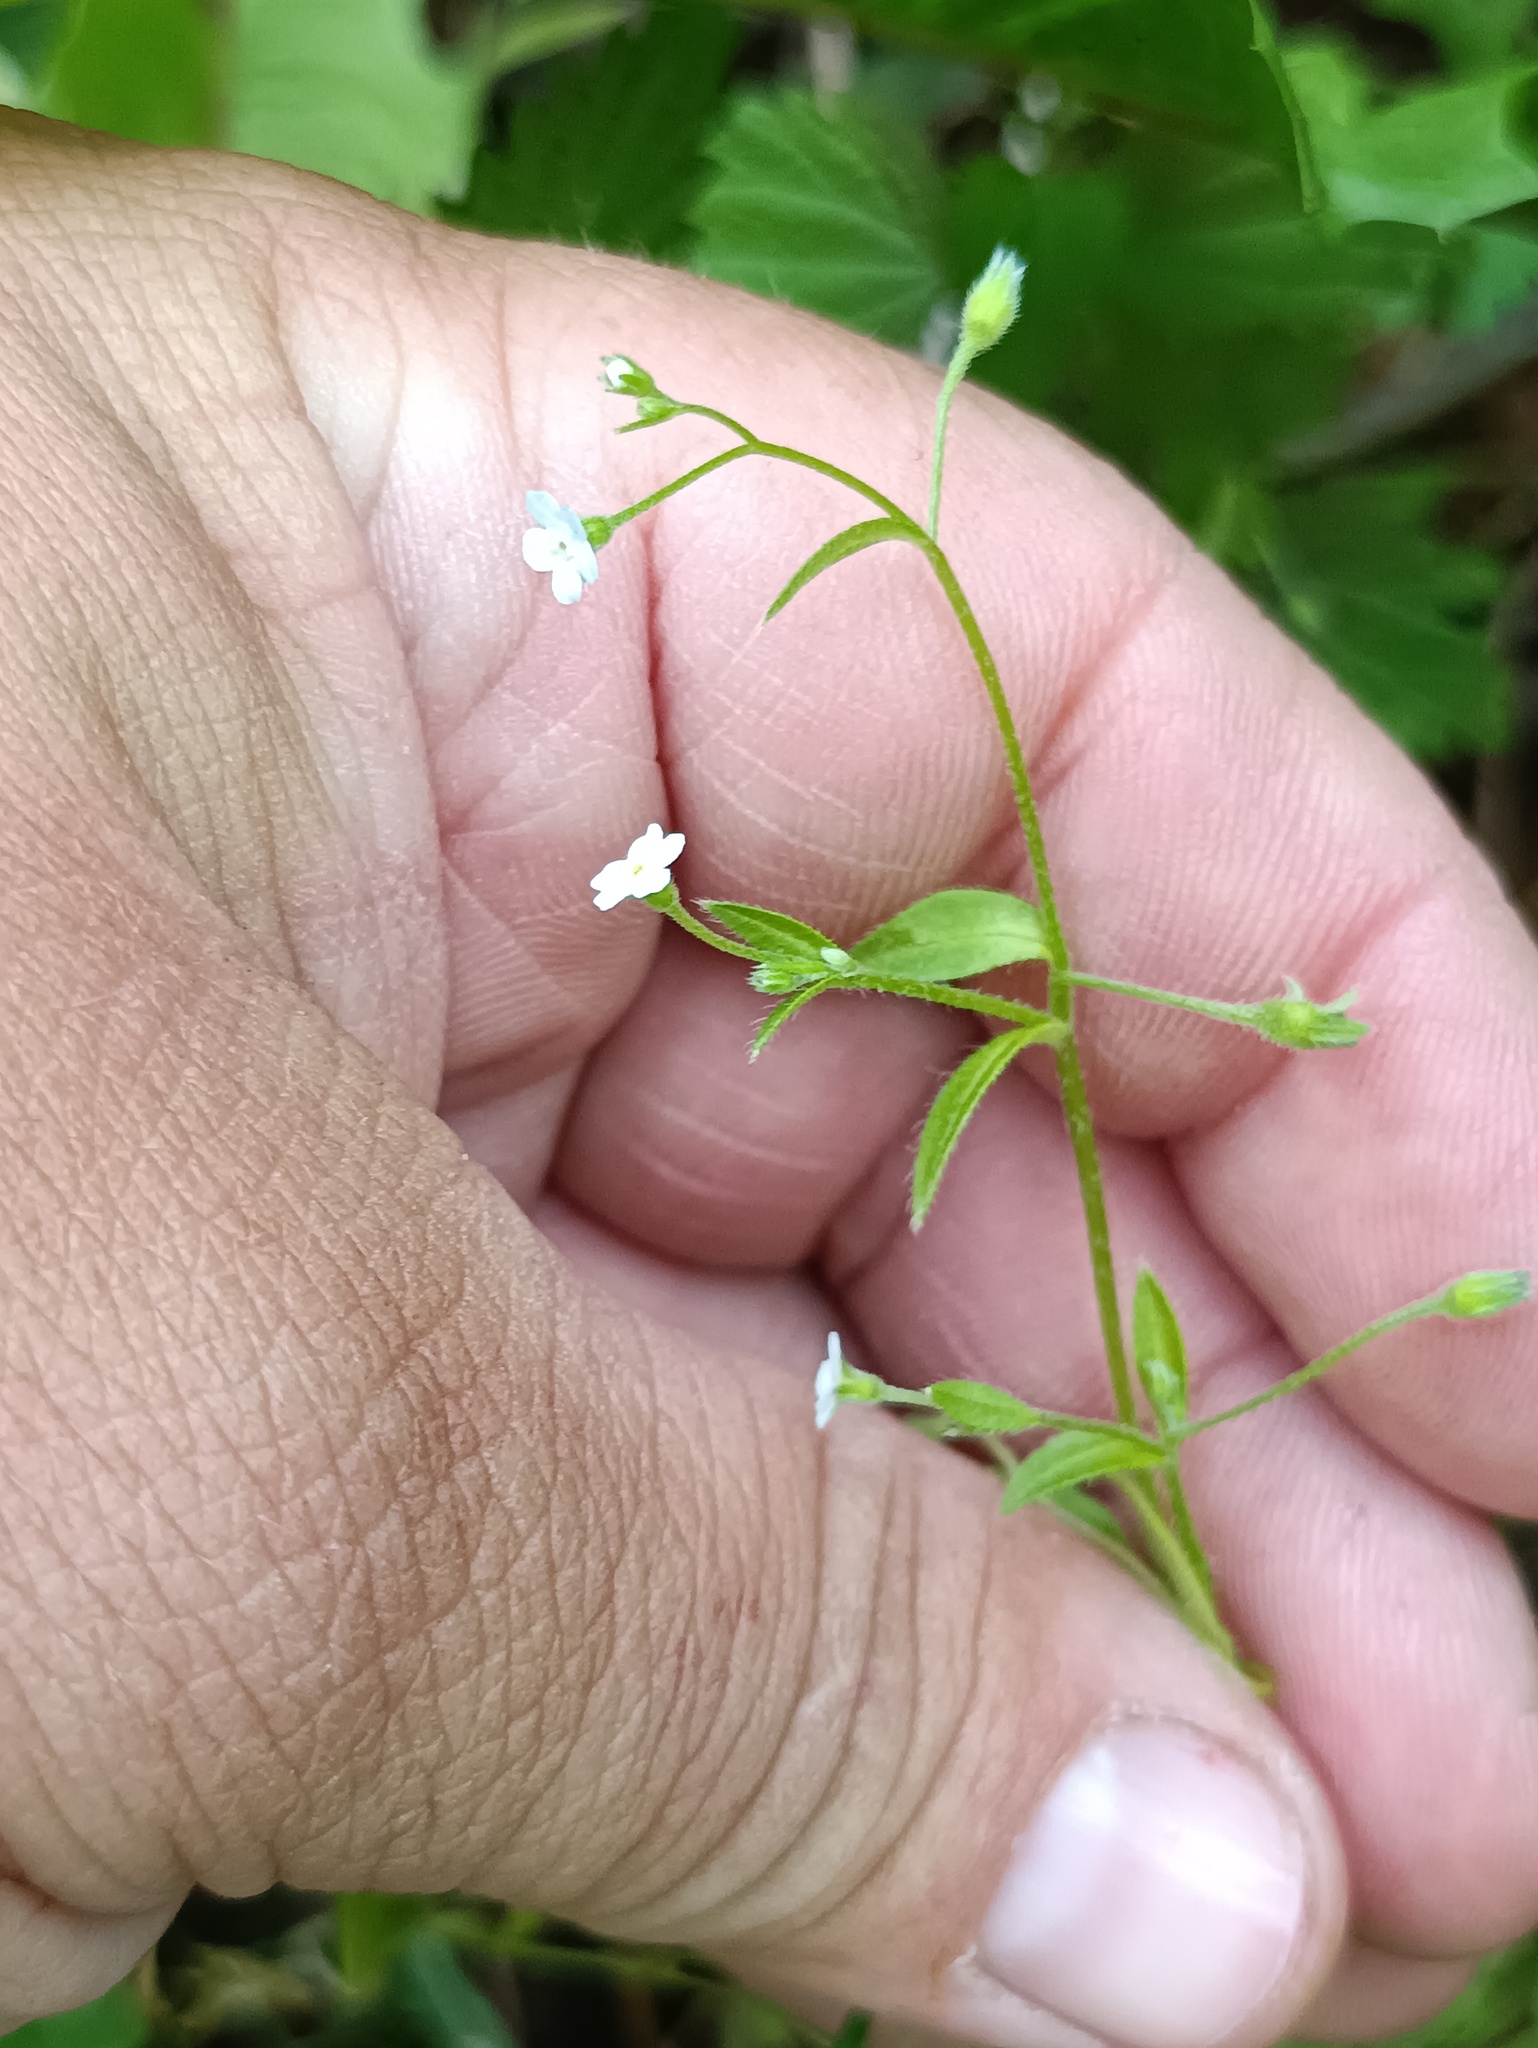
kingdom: Plantae
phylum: Tracheophyta
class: Magnoliopsida
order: Boraginales
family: Boraginaceae
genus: Myosotis
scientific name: Myosotis sparsiflora
